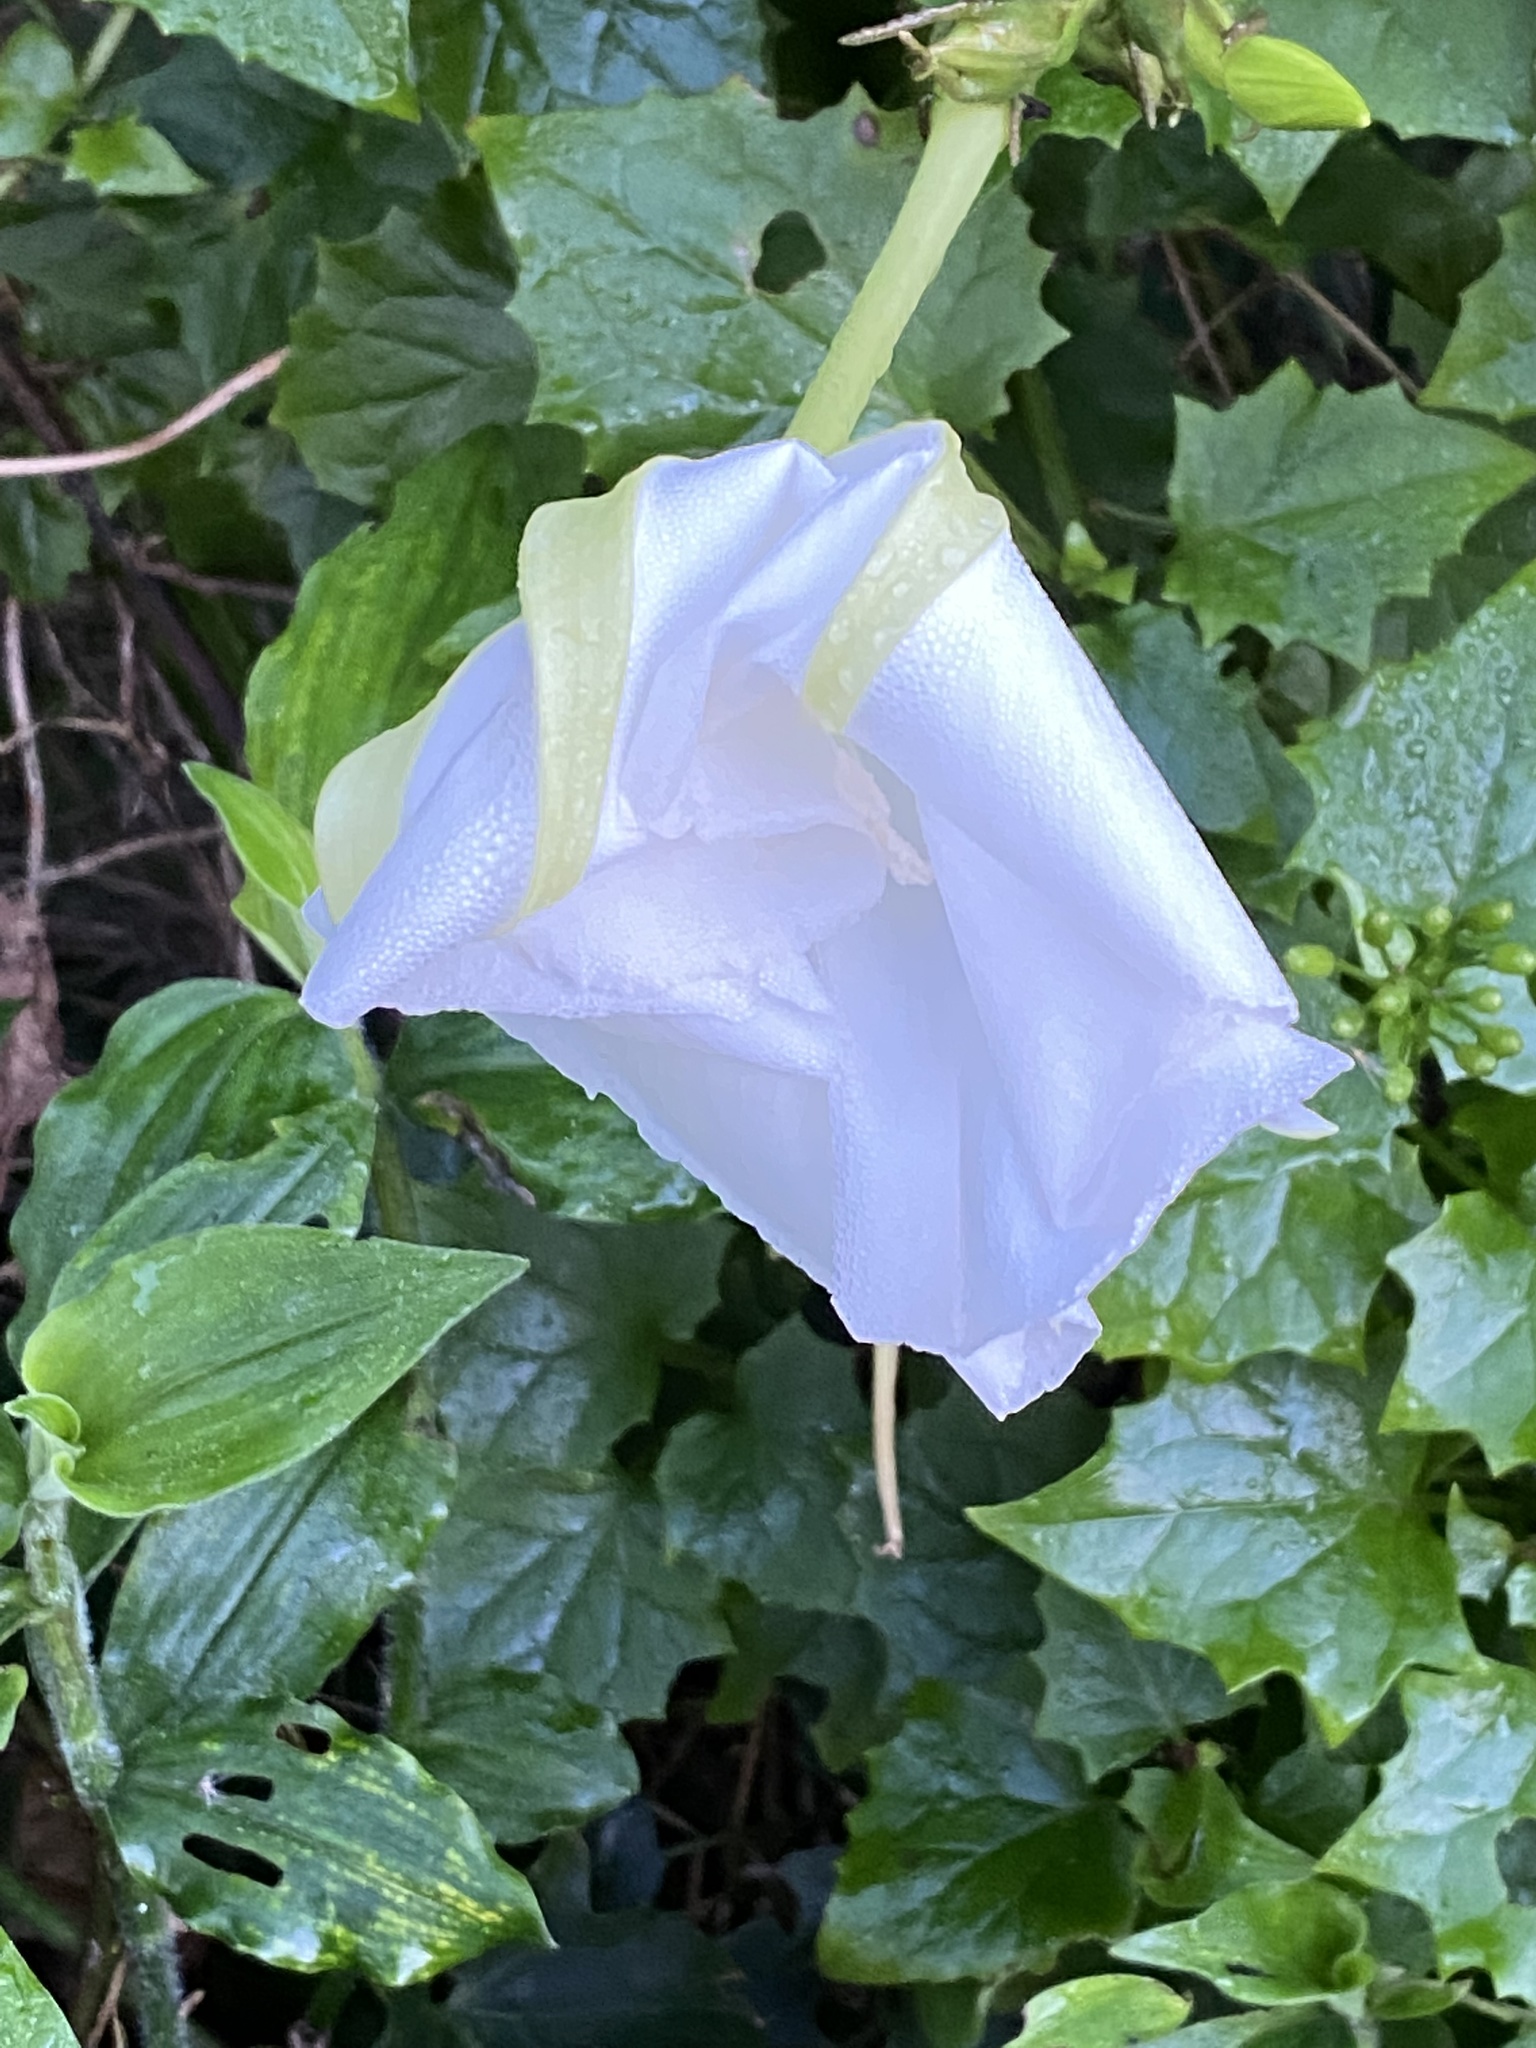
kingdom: Plantae
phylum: Tracheophyta
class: Magnoliopsida
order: Solanales
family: Convolvulaceae
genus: Ipomoea
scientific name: Ipomoea alba
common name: Moonflower
